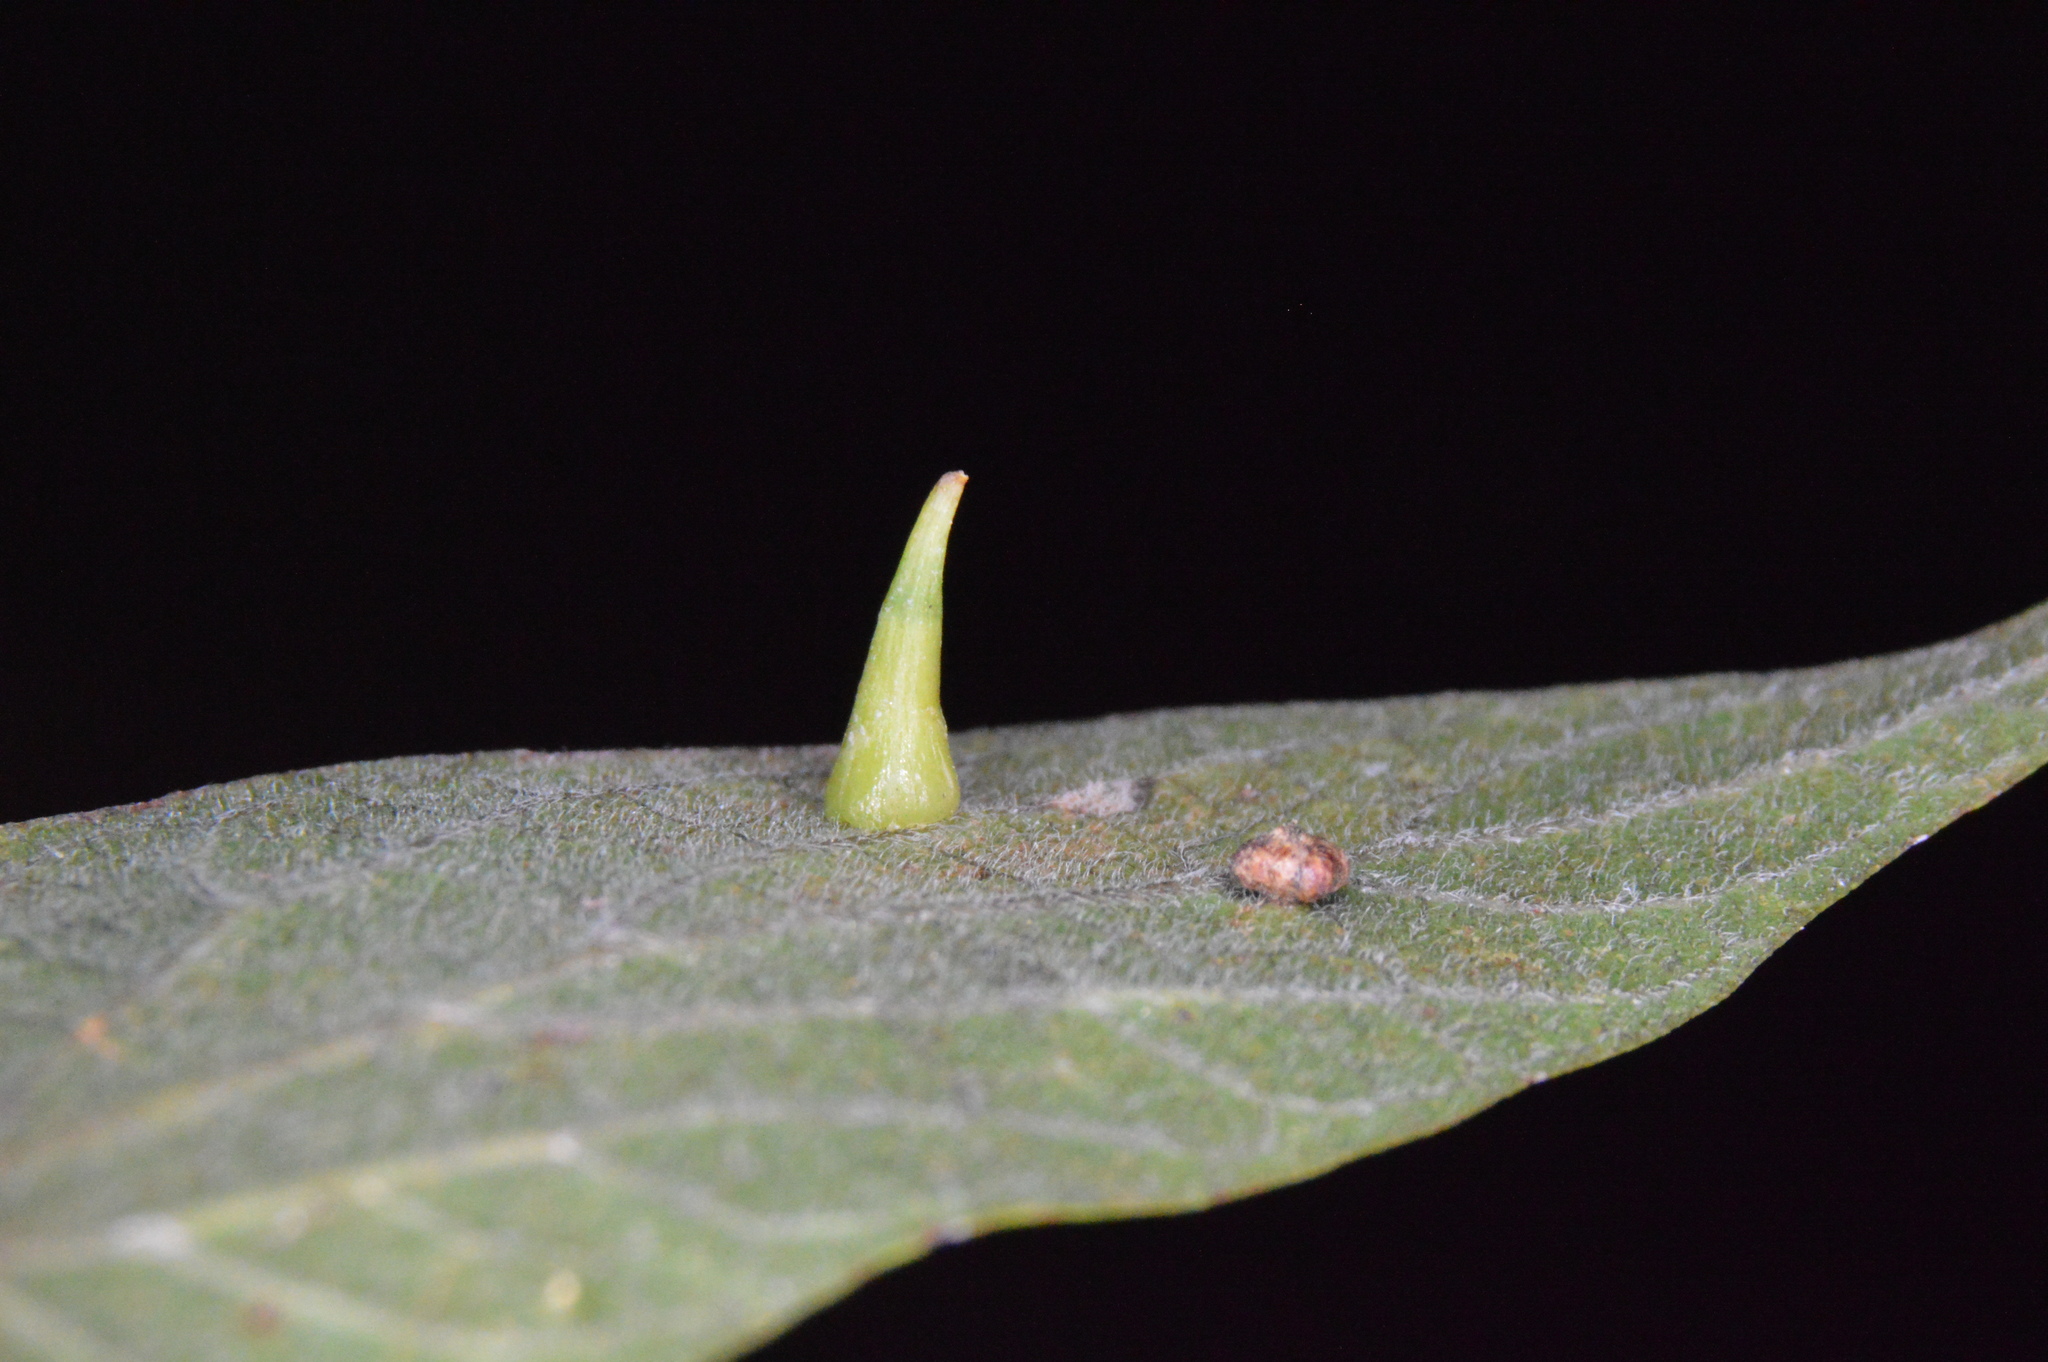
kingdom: Animalia
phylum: Arthropoda
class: Insecta
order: Diptera
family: Cecidomyiidae
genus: Celticecis
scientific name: Celticecis subulata
